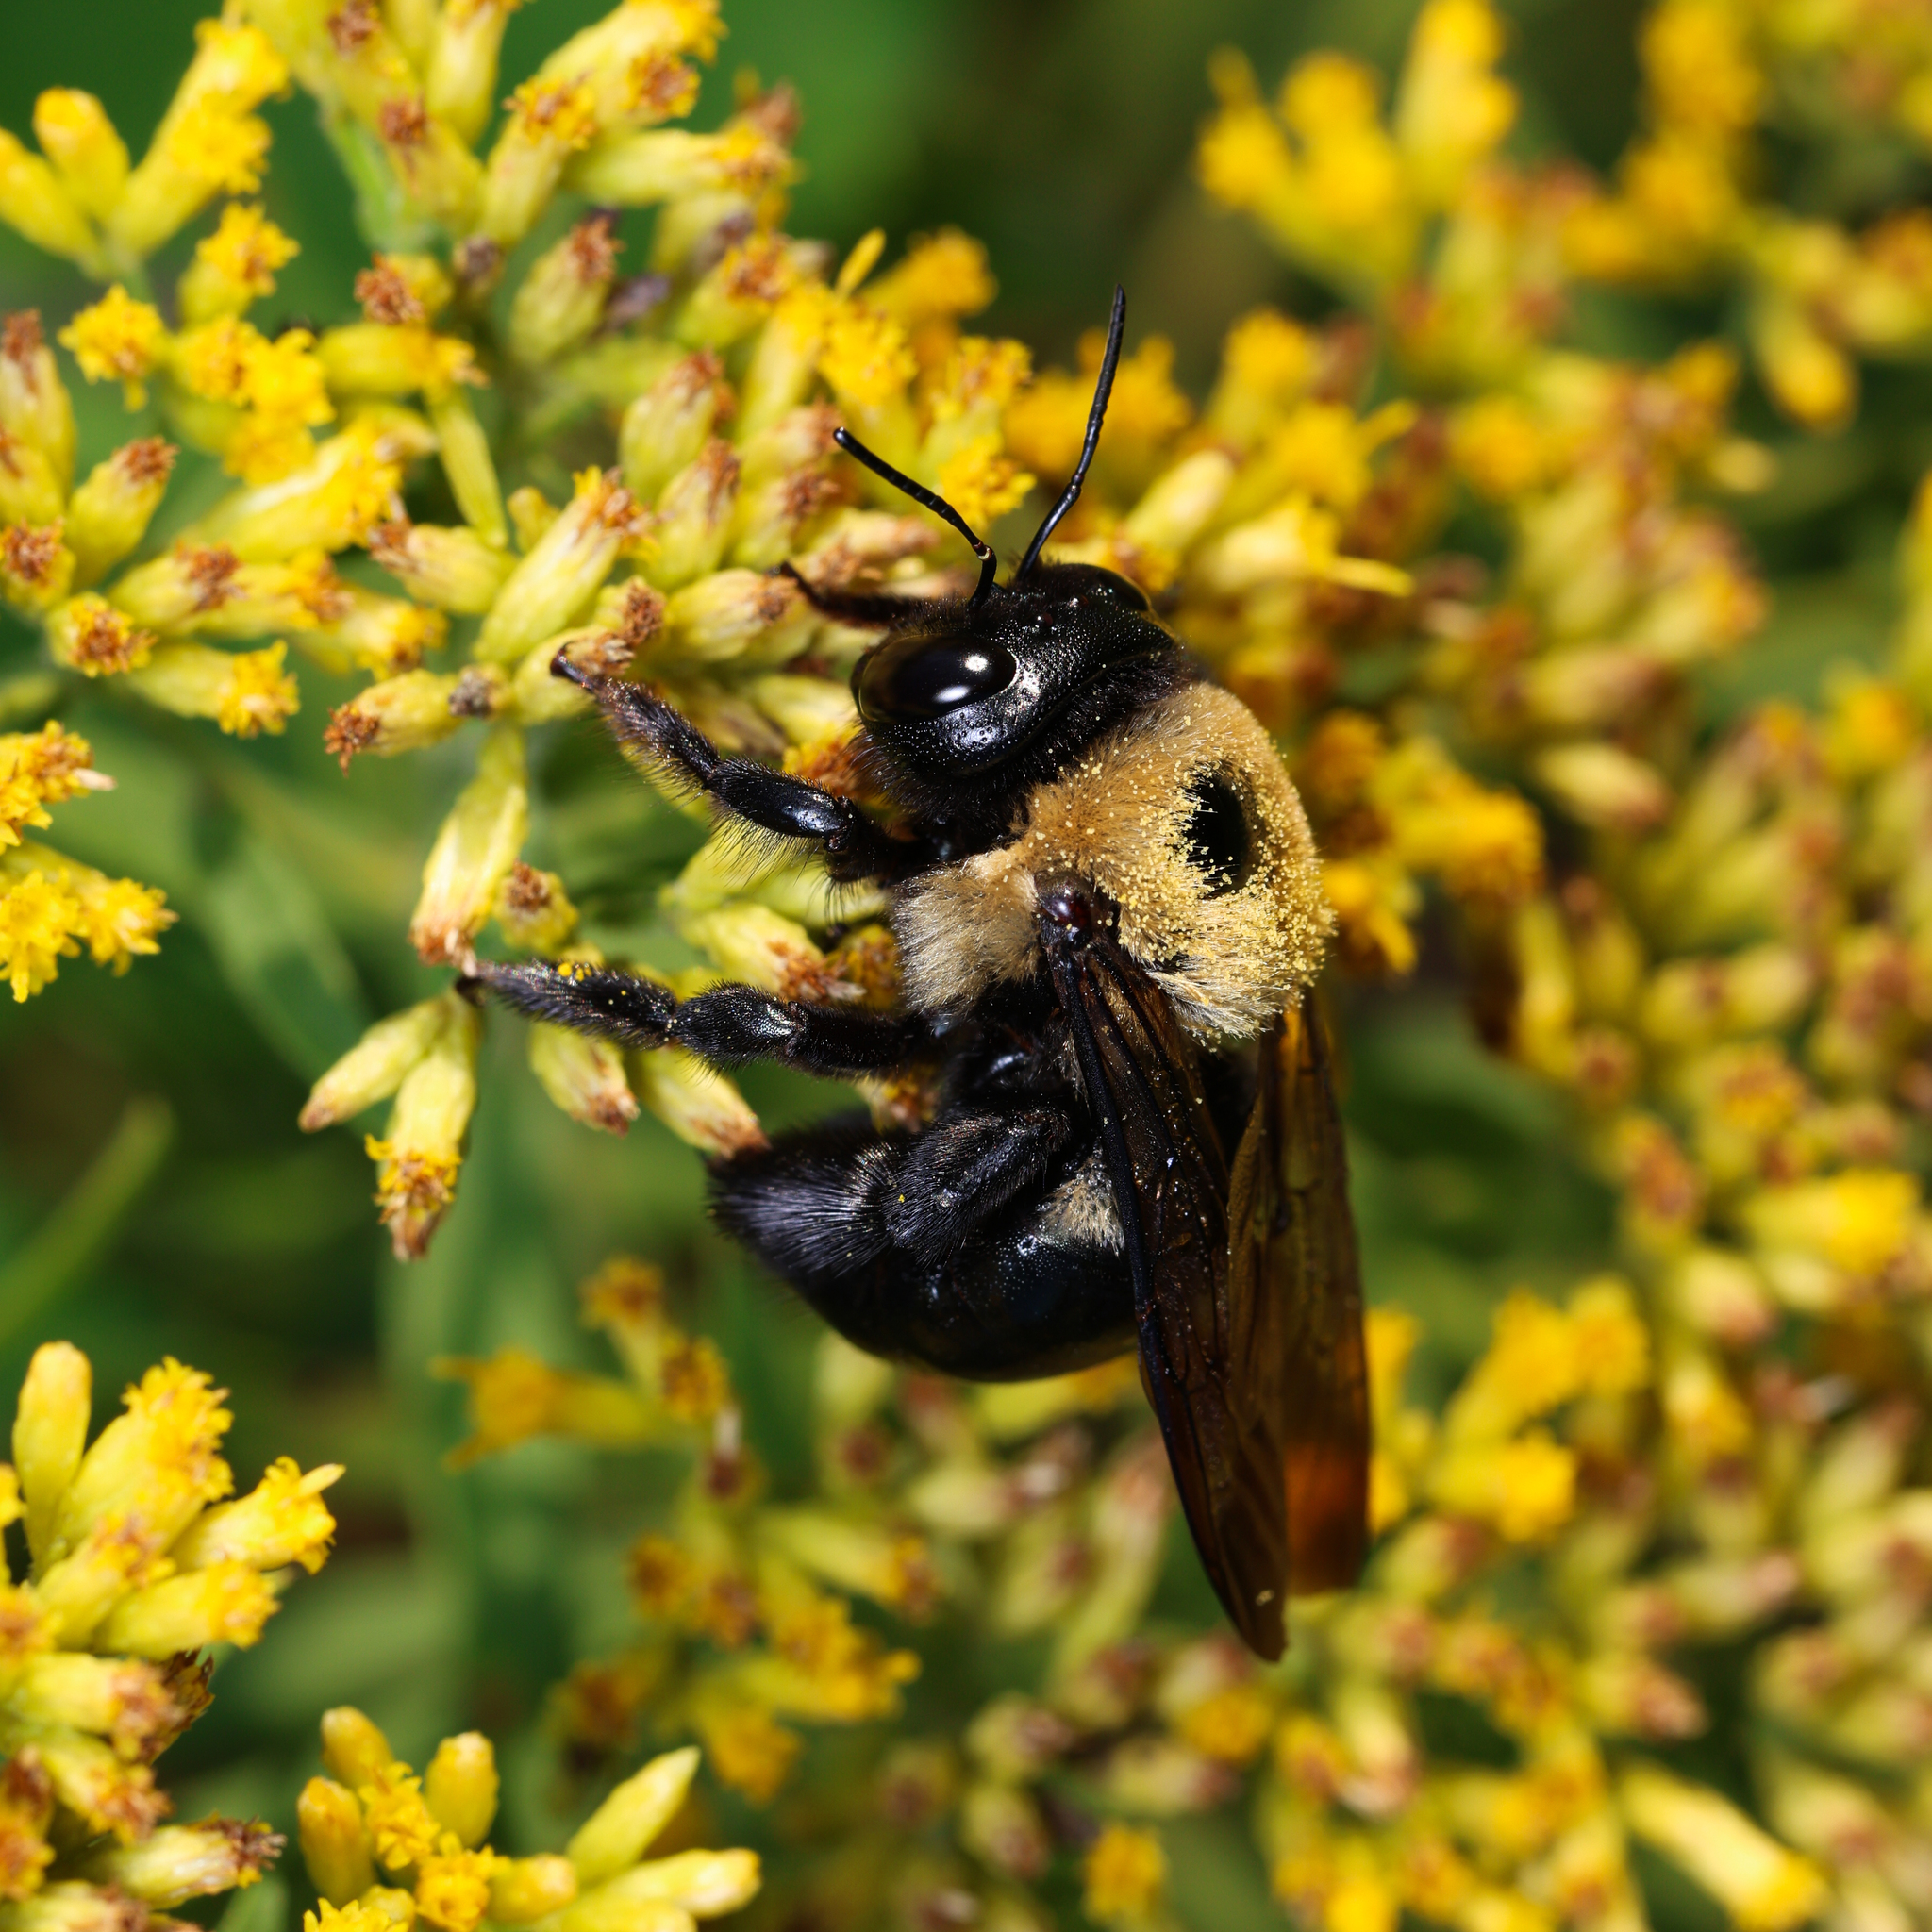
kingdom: Animalia
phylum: Arthropoda
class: Insecta
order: Hymenoptera
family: Apidae
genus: Xylocopa
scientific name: Xylocopa virginica
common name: Carpenter bee
